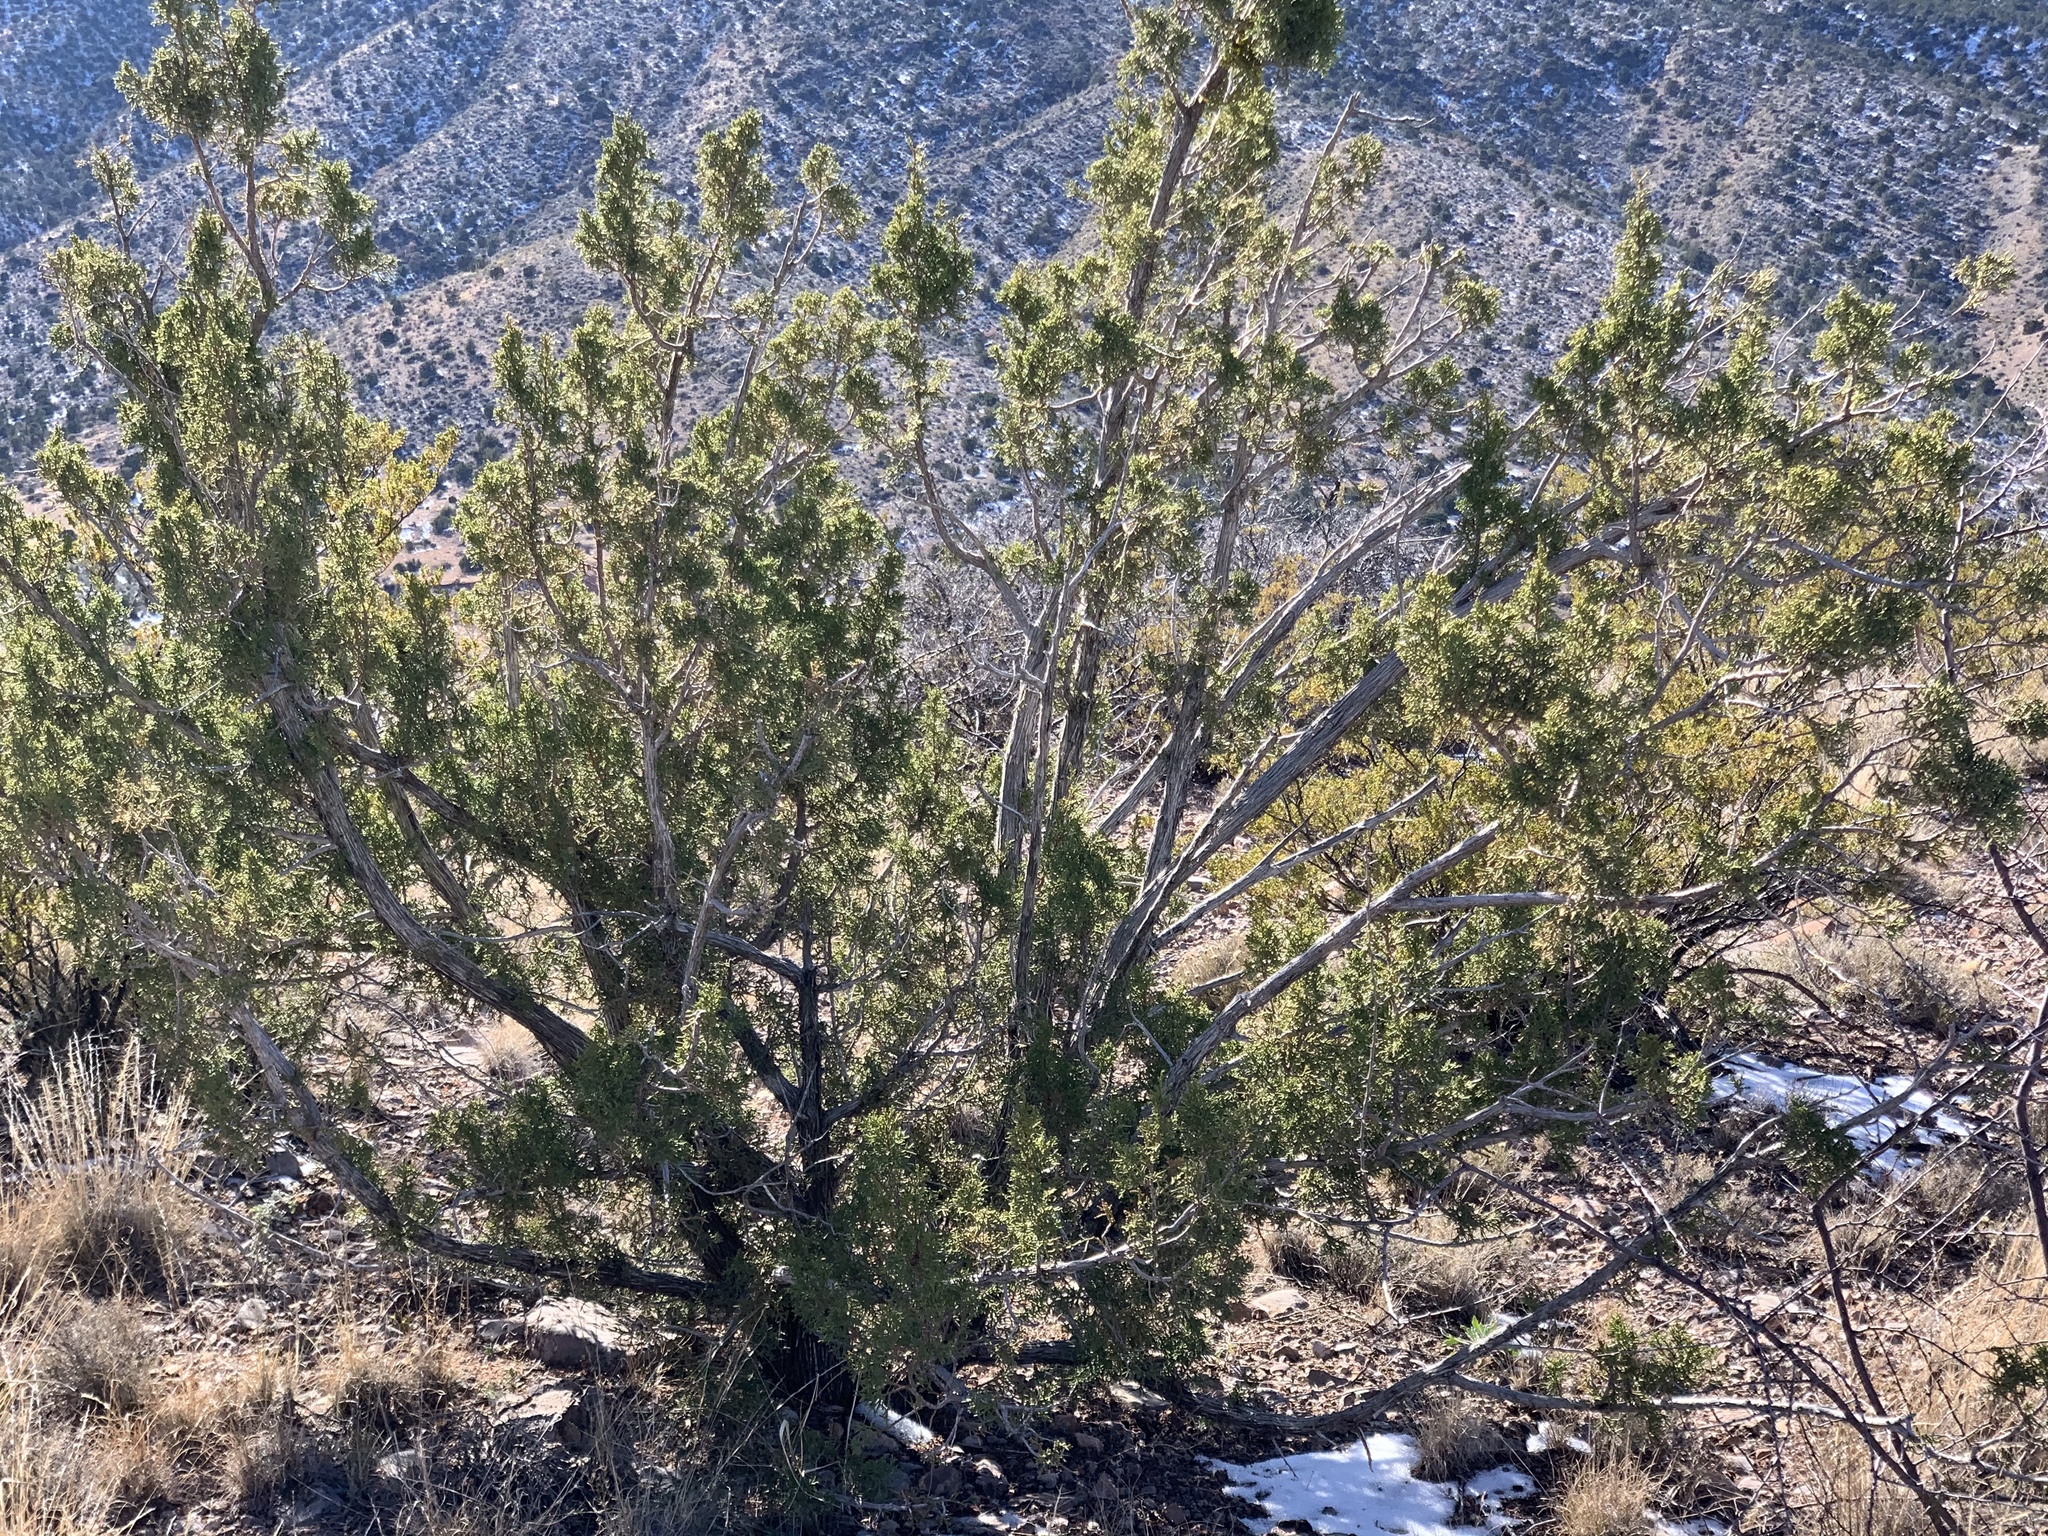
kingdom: Plantae
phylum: Tracheophyta
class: Pinopsida
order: Pinales
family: Cupressaceae
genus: Juniperus
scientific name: Juniperus monosperma
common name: One-seed juniper
